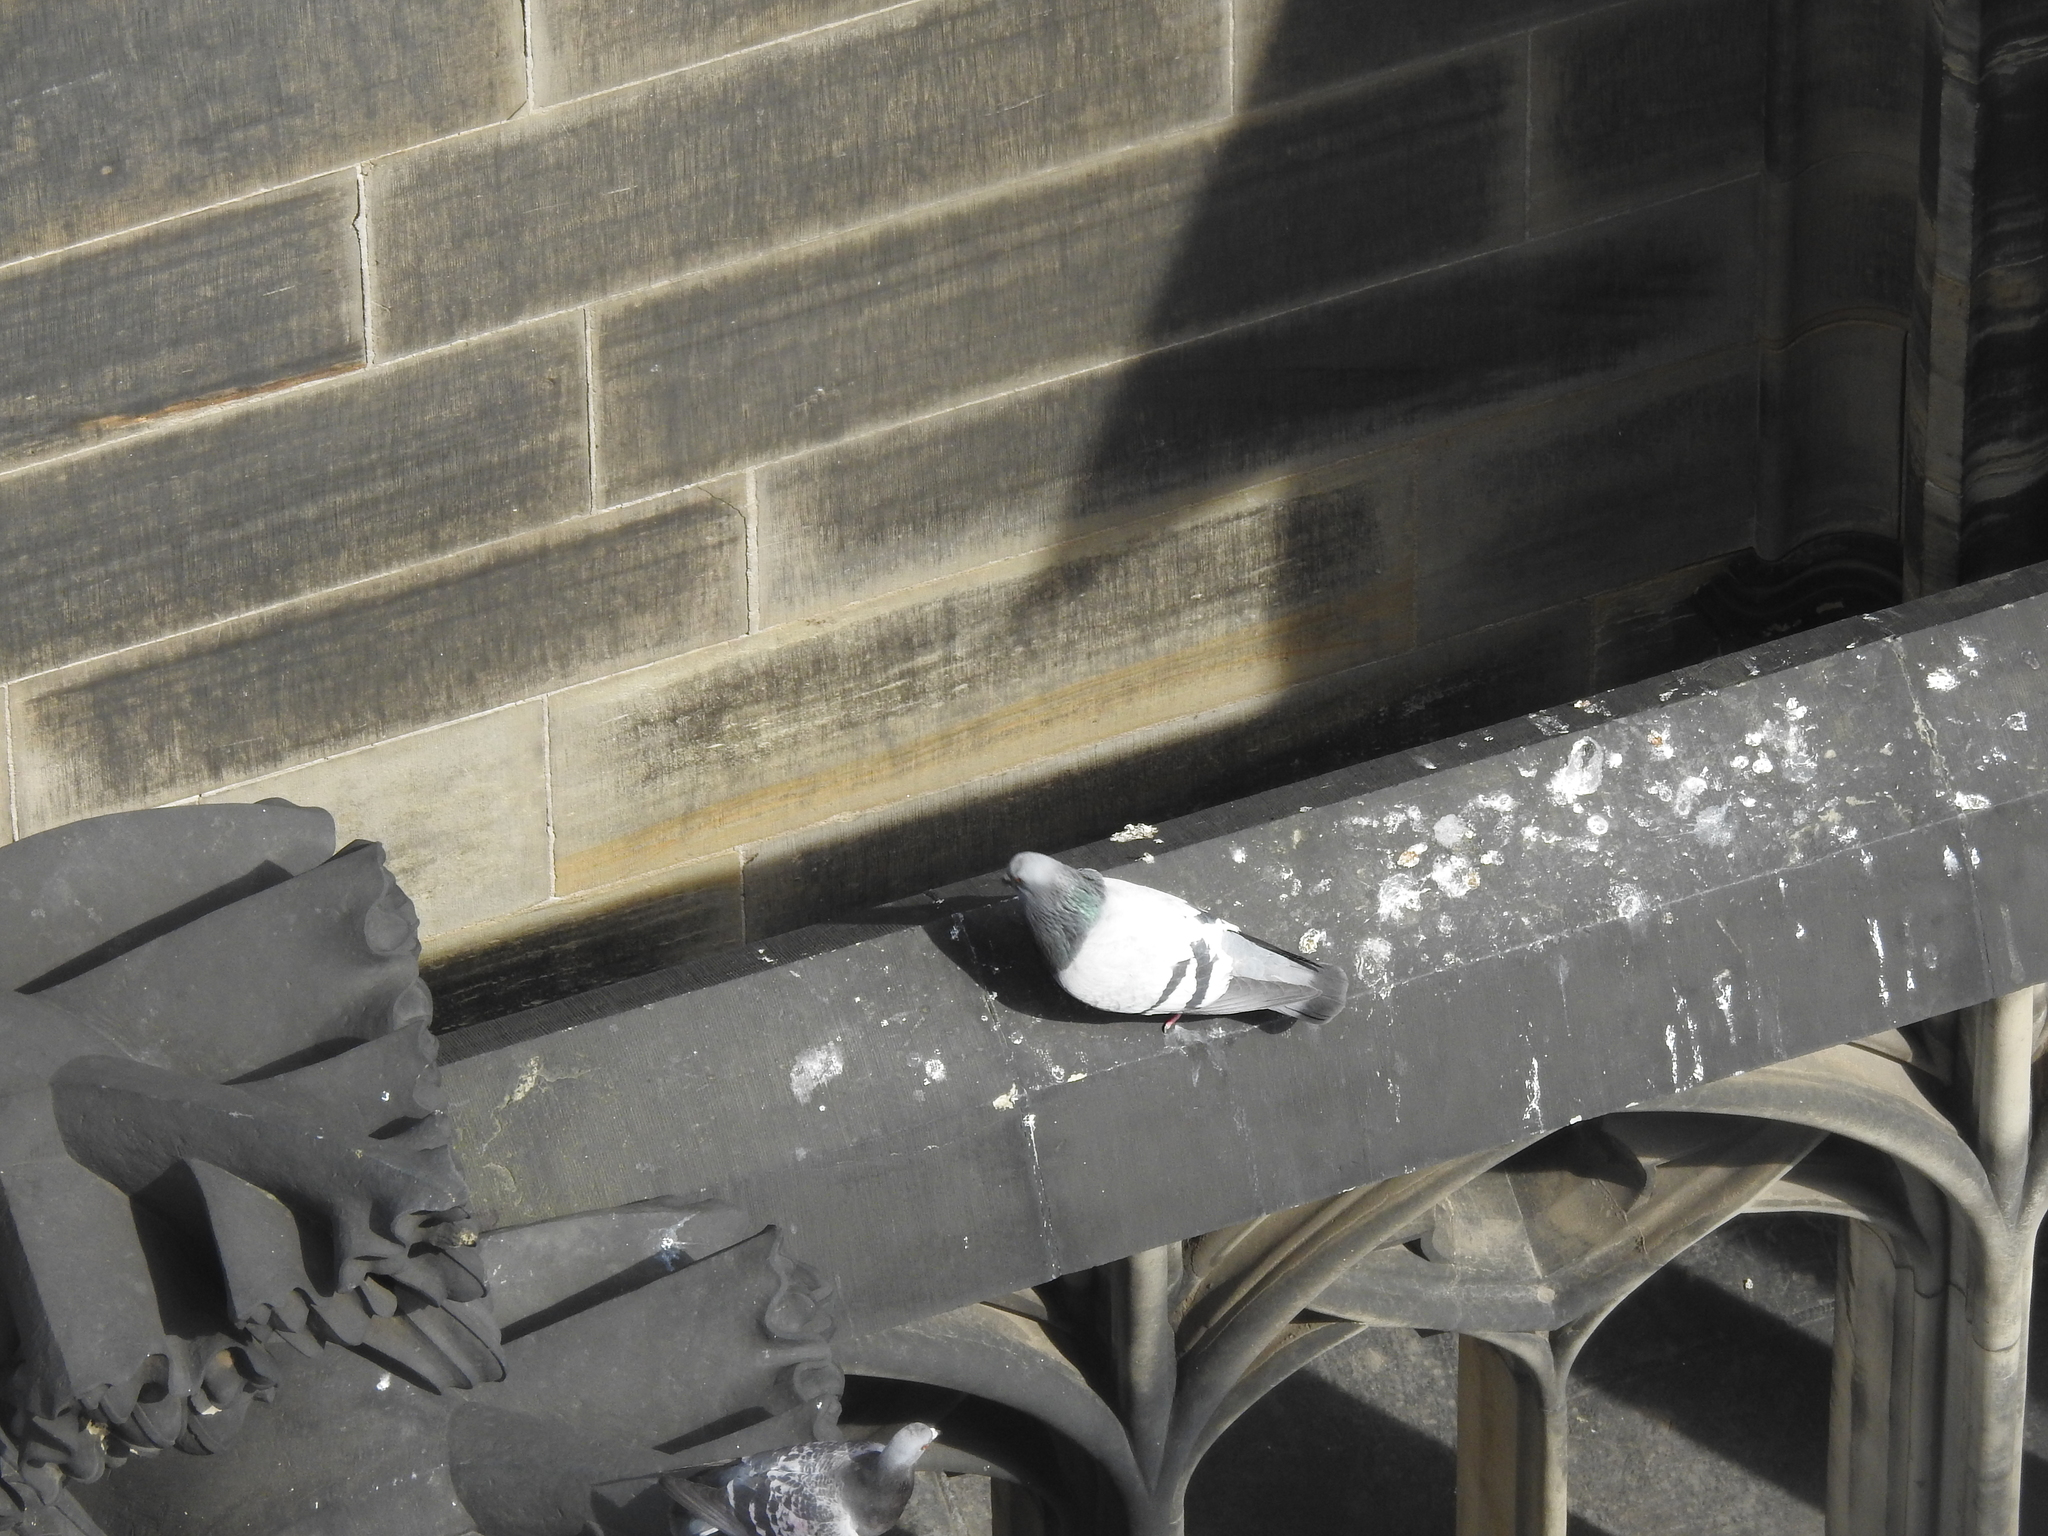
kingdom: Animalia
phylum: Chordata
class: Aves
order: Columbiformes
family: Columbidae
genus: Columba
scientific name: Columba livia
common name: Rock pigeon
